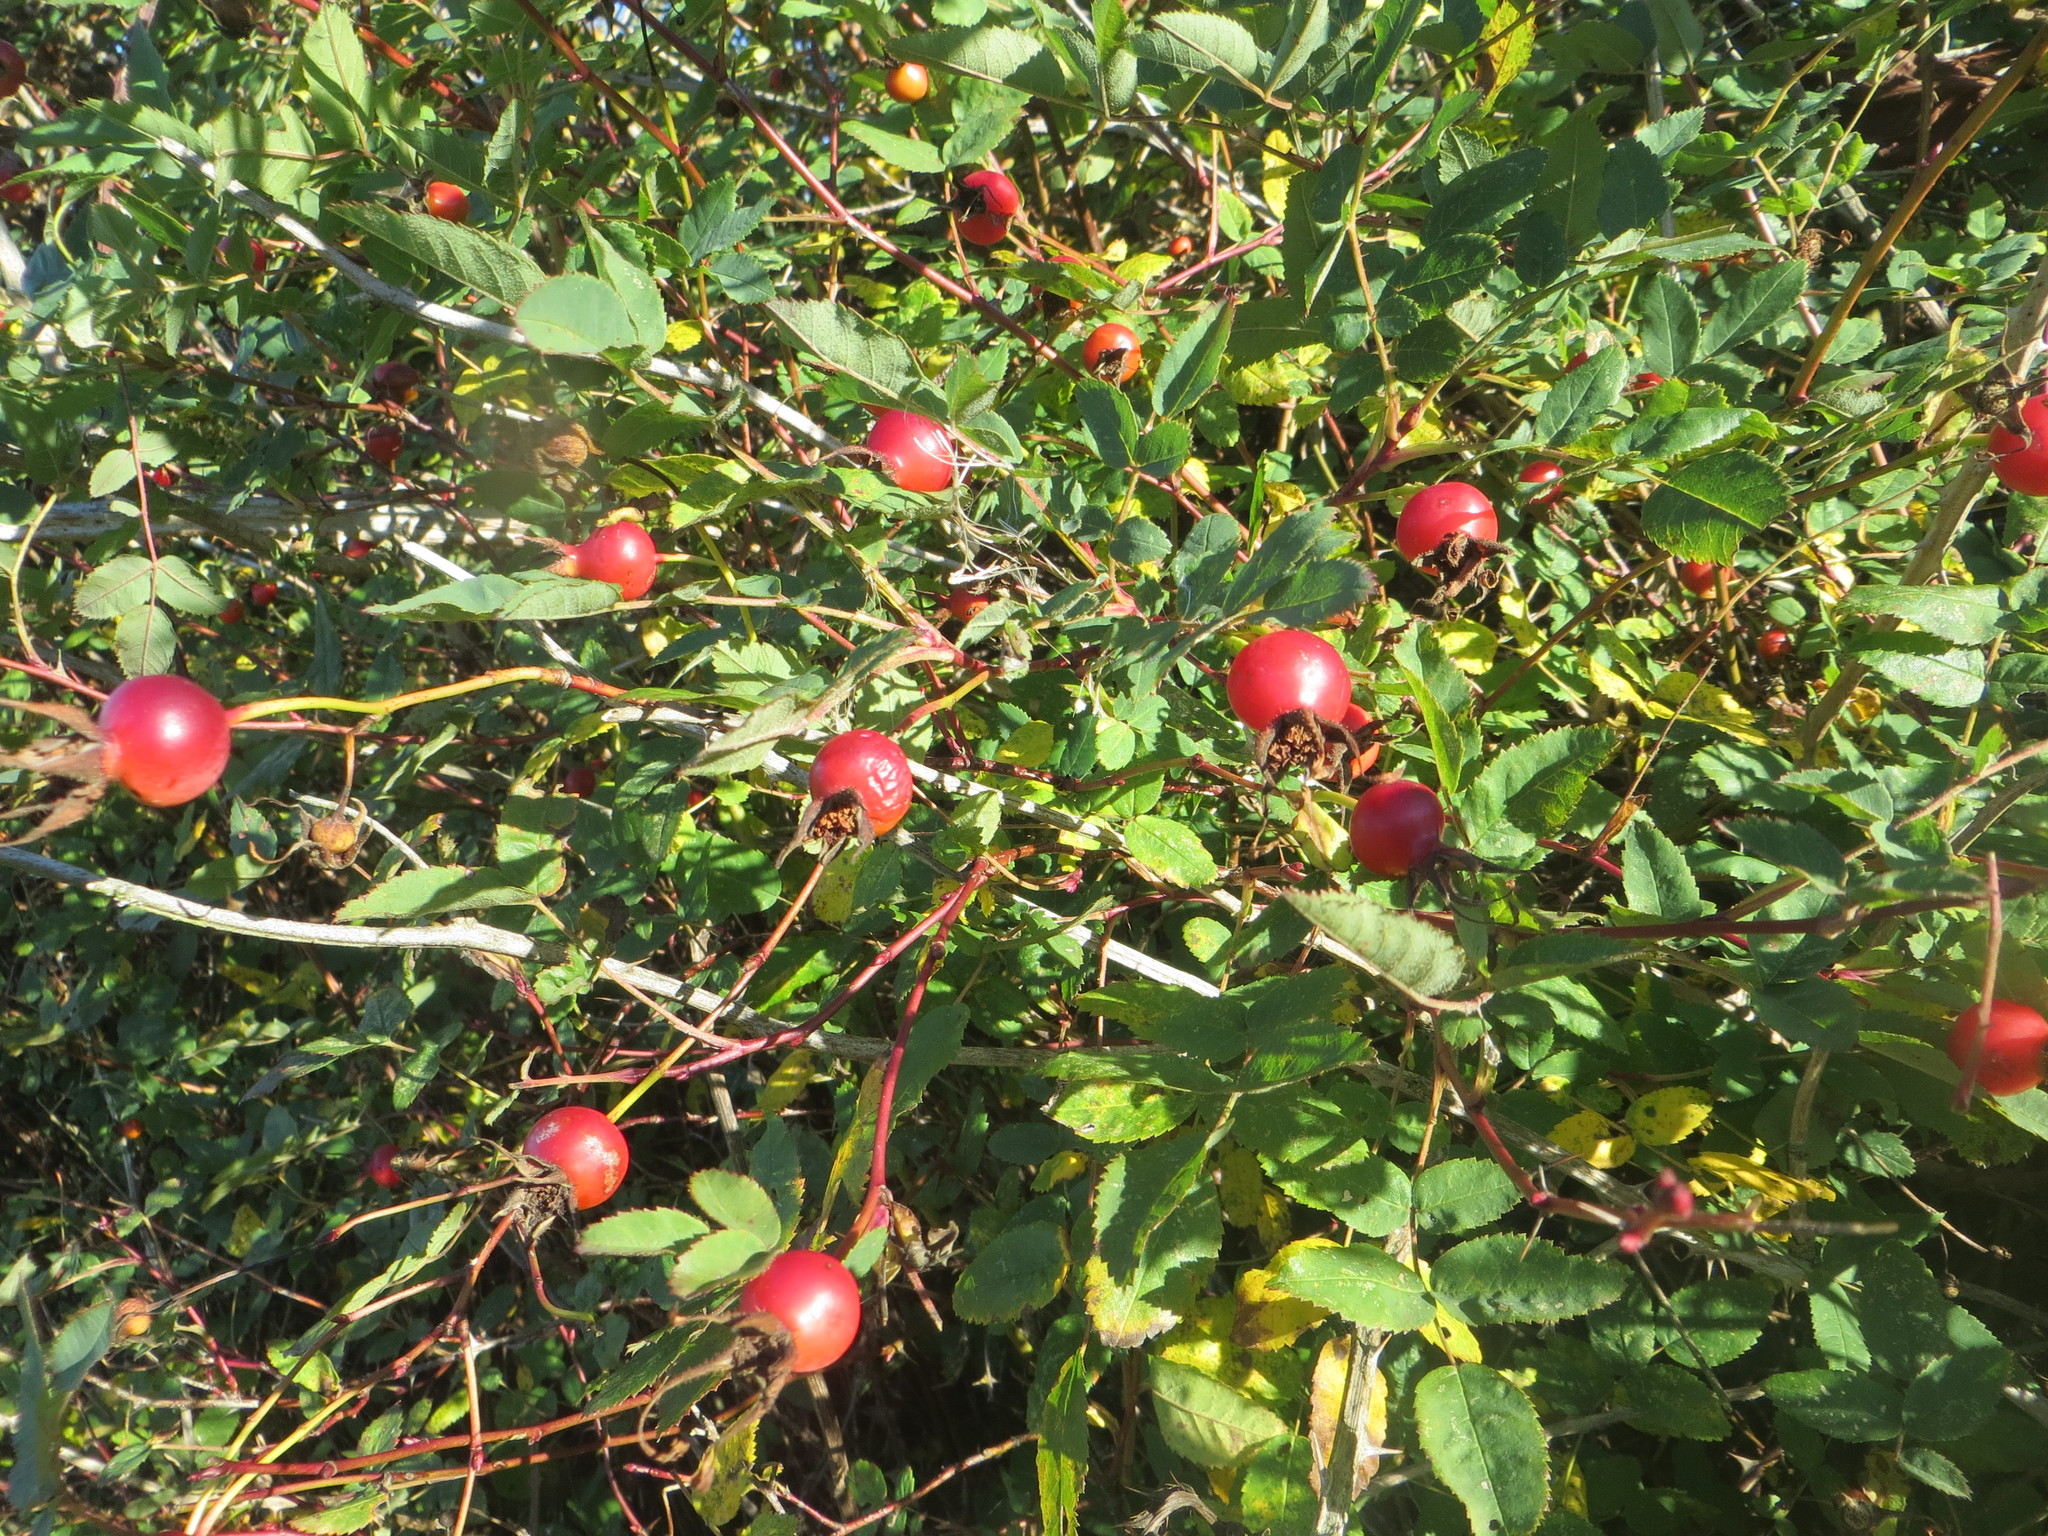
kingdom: Plantae
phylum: Tracheophyta
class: Magnoliopsida
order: Rosales
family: Rosaceae
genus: Rosa
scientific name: Rosa nutkana
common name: Nootka rose
